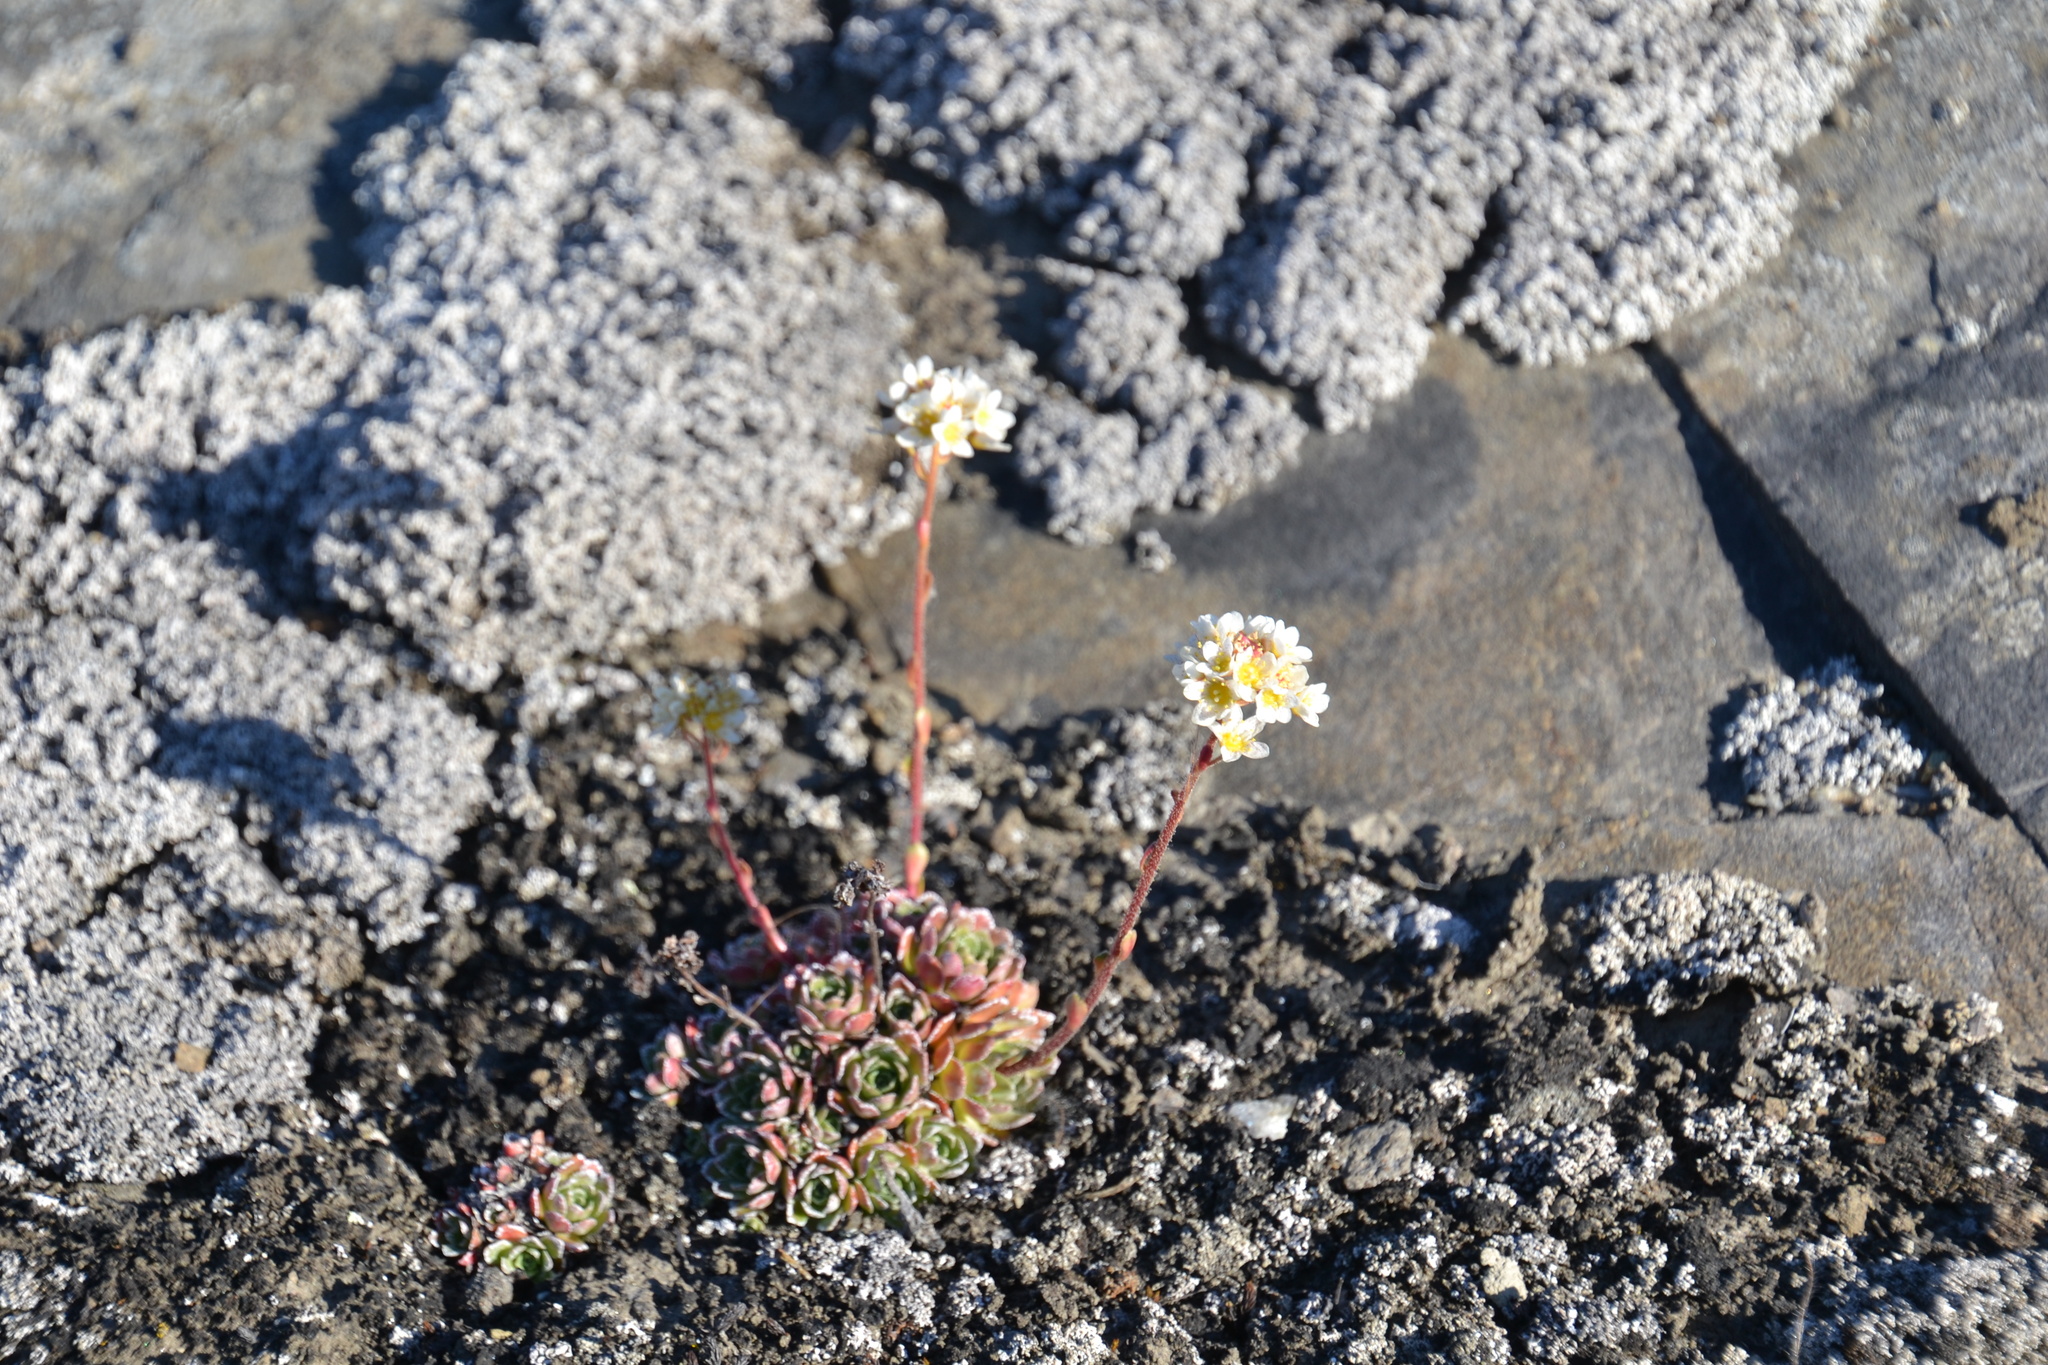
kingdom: Plantae
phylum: Tracheophyta
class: Magnoliopsida
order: Saxifragales
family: Saxifragaceae
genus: Saxifraga
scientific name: Saxifraga paniculata
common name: Livelong saxifrage
